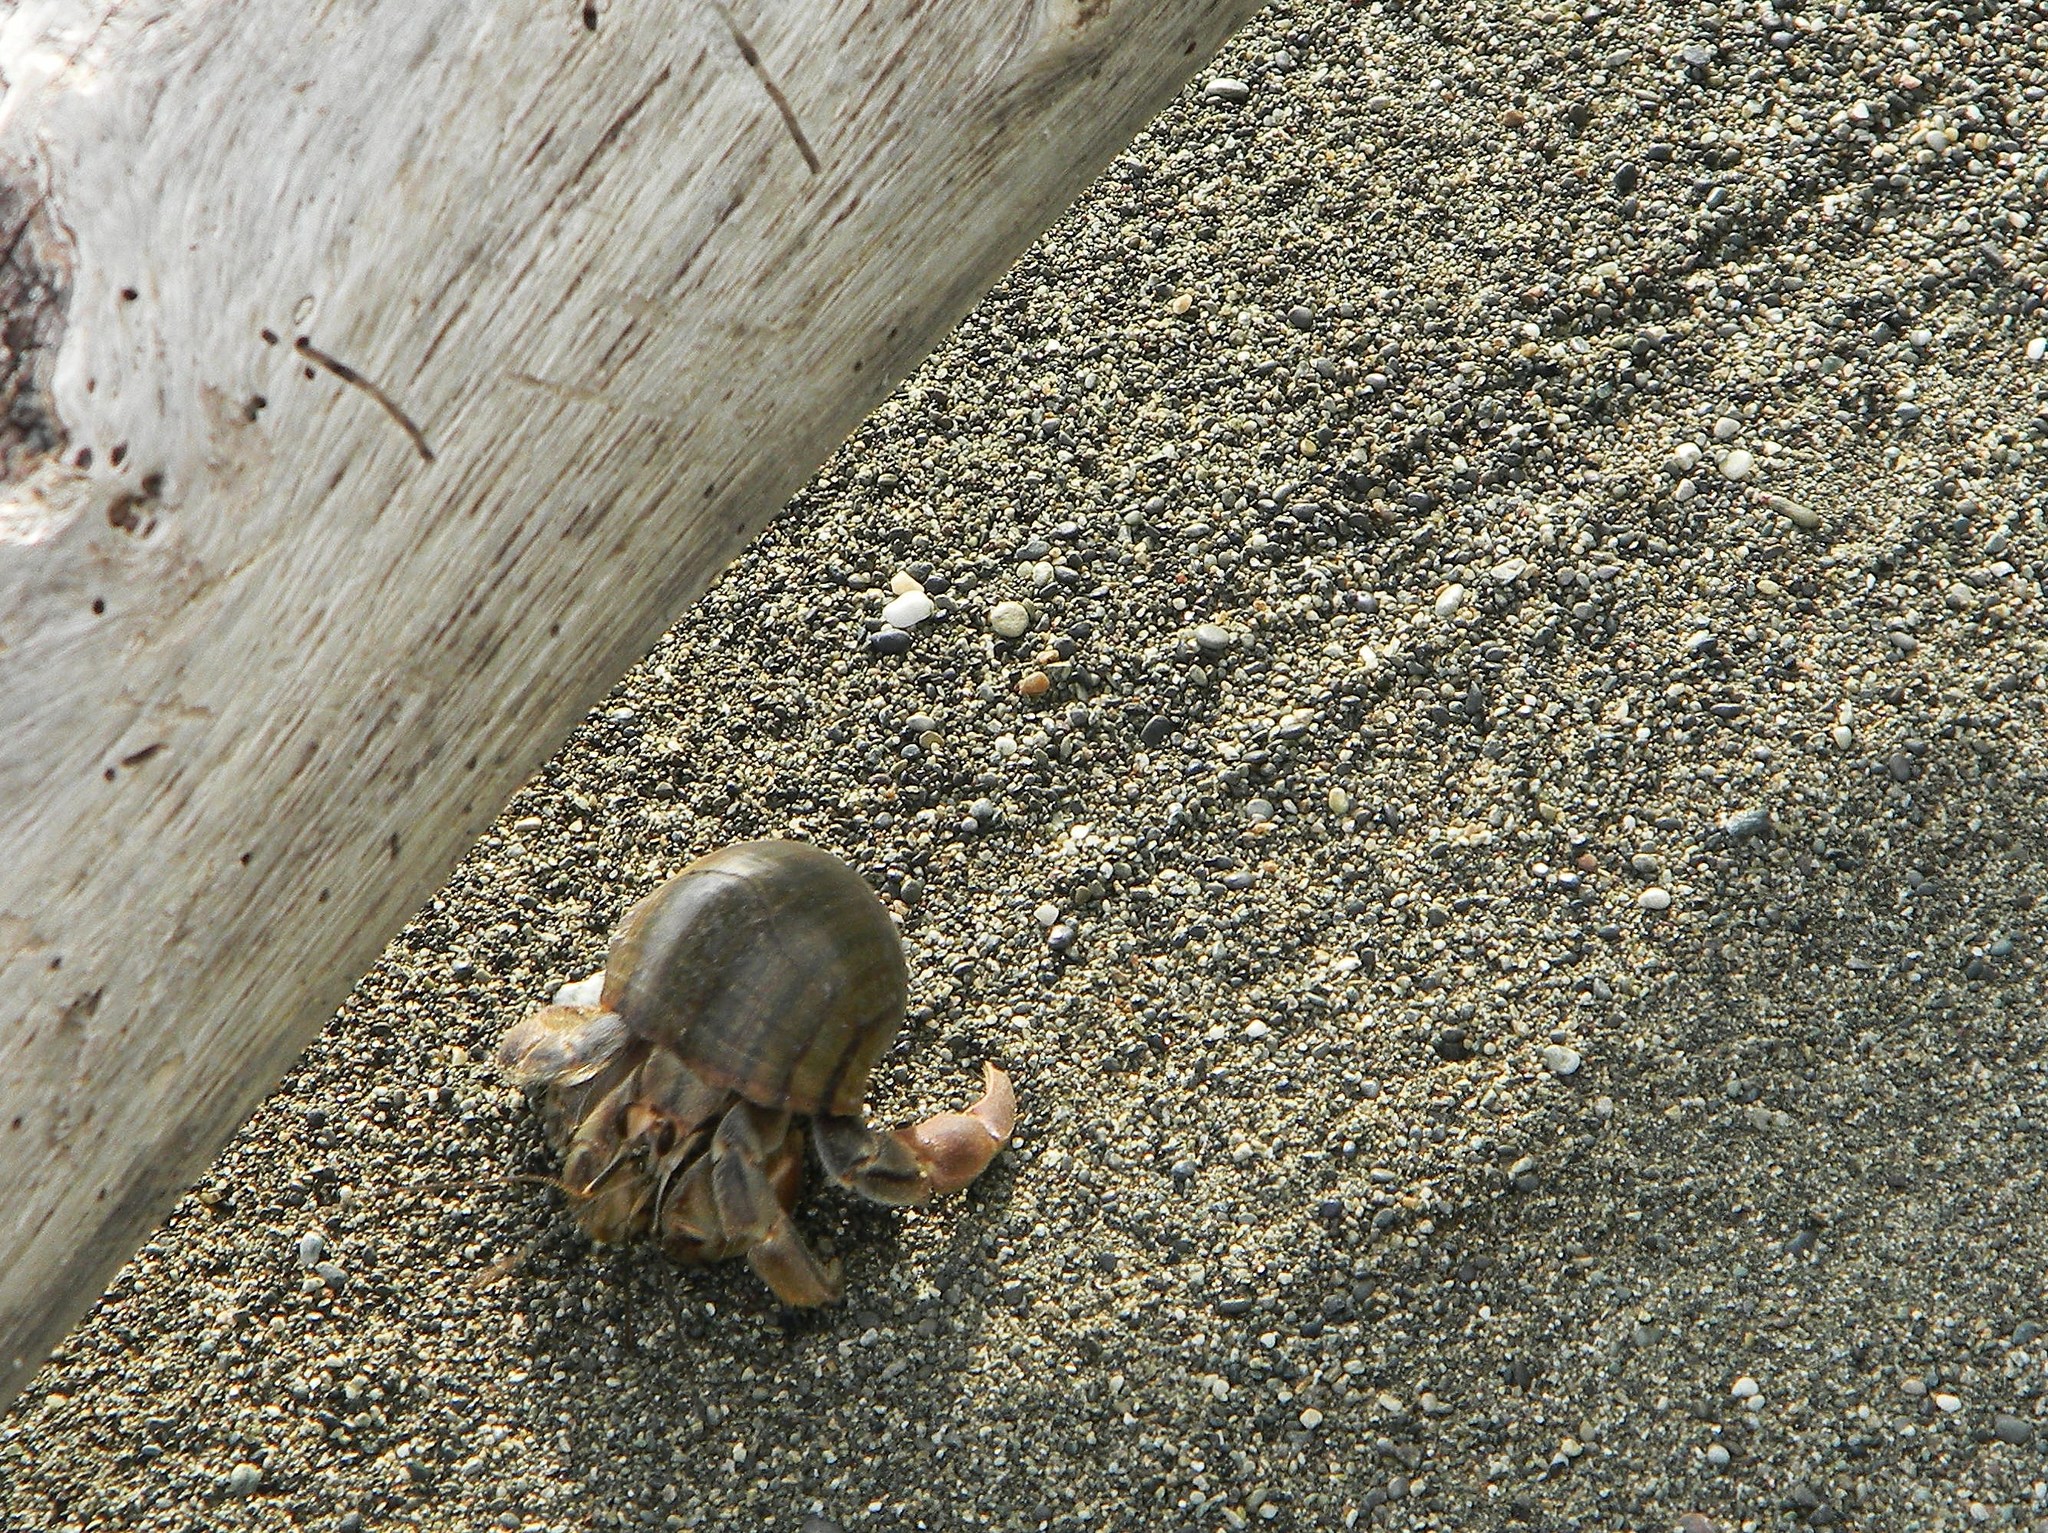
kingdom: Animalia
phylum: Arthropoda
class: Malacostraca
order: Decapoda
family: Coenobitidae
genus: Coenobita
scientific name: Coenobita compressus
